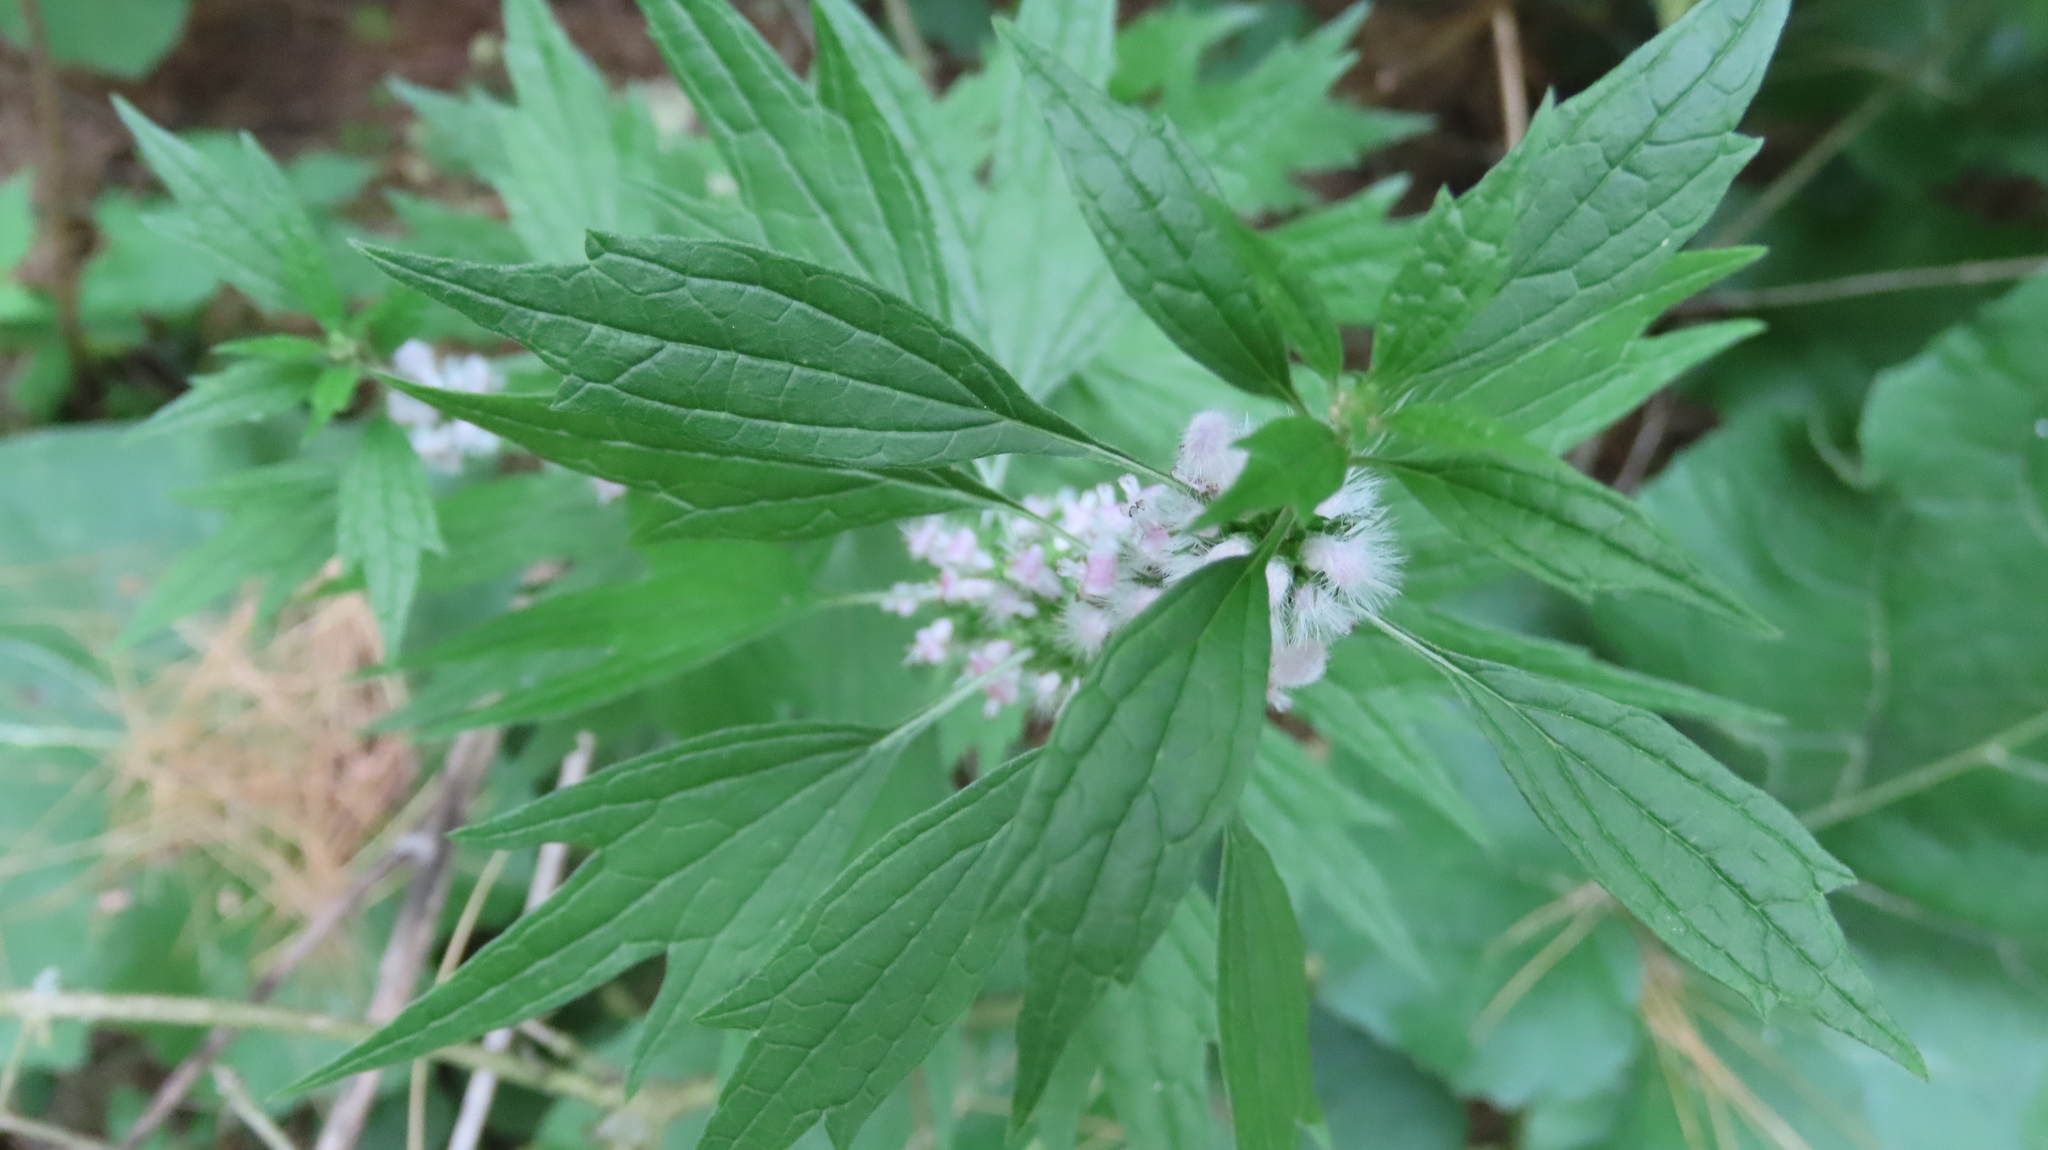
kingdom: Plantae
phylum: Tracheophyta
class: Magnoliopsida
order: Lamiales
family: Lamiaceae
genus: Leonurus
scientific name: Leonurus cardiaca
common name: Motherwort
